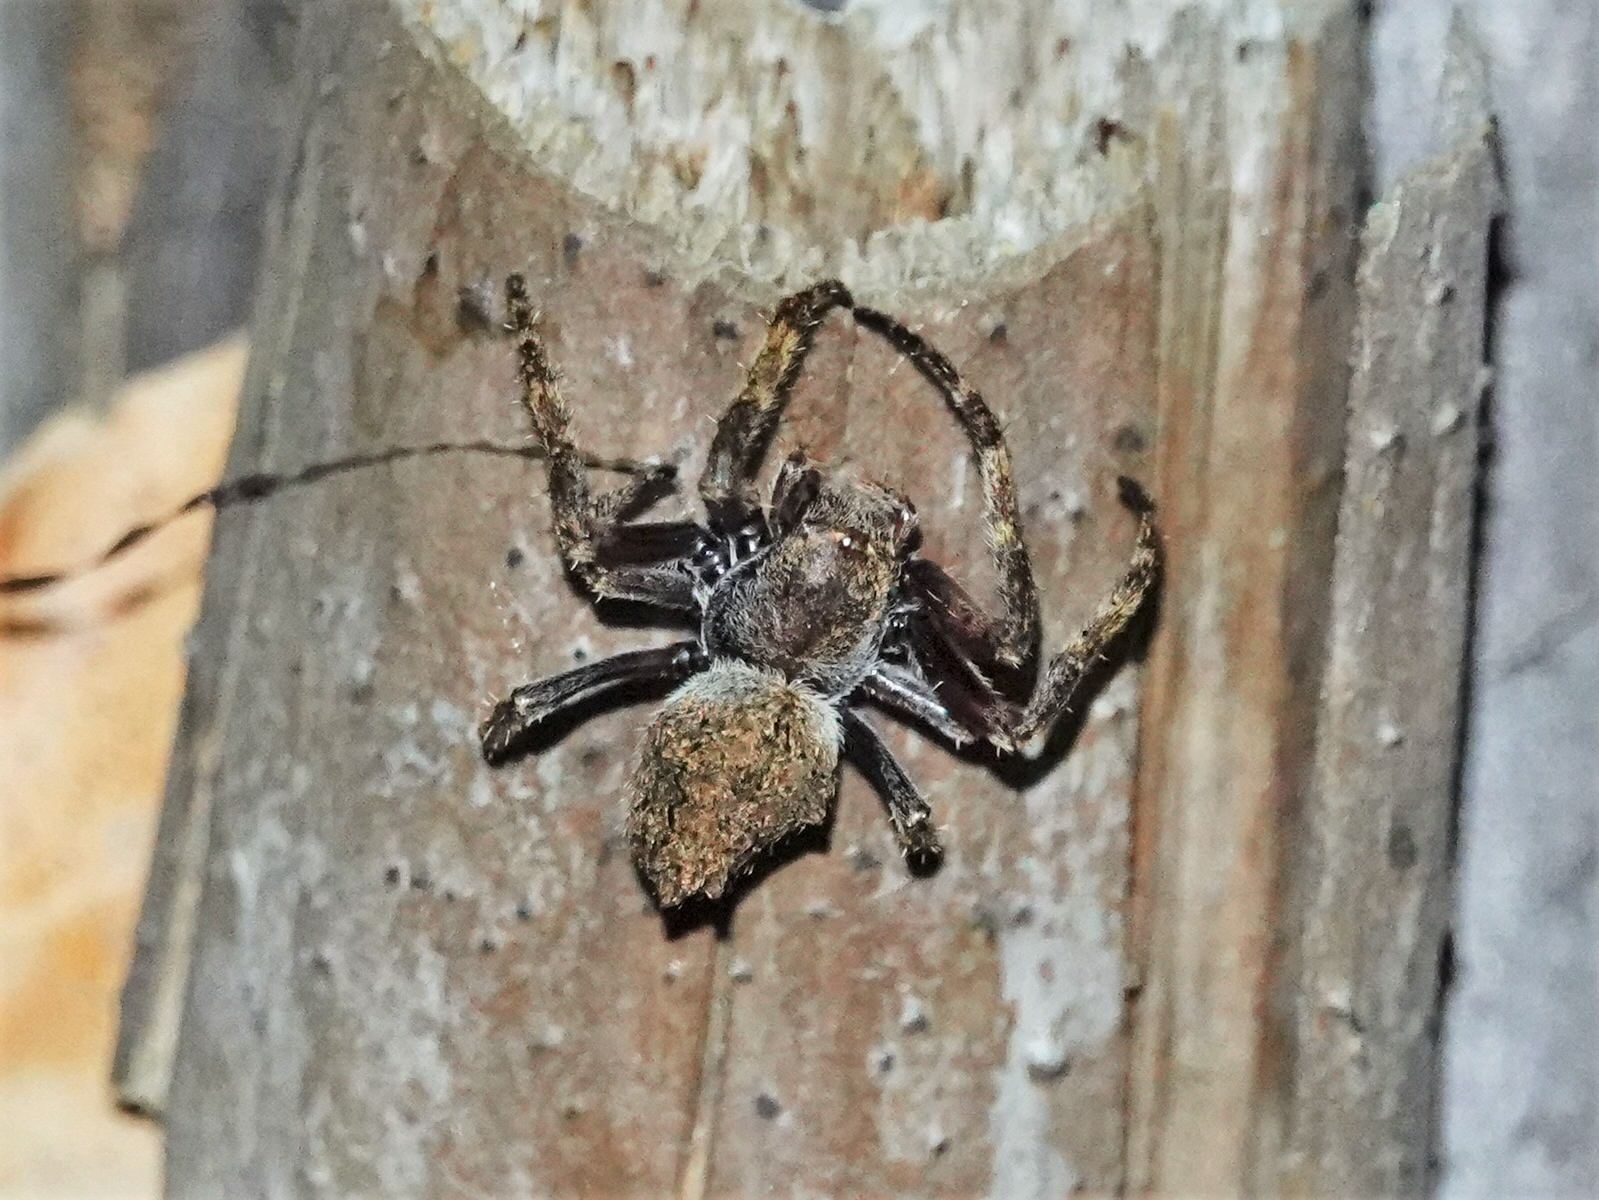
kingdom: Animalia
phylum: Arthropoda
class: Arachnida
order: Araneae
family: Araneidae
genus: Eriophora
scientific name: Eriophora pustulosa
